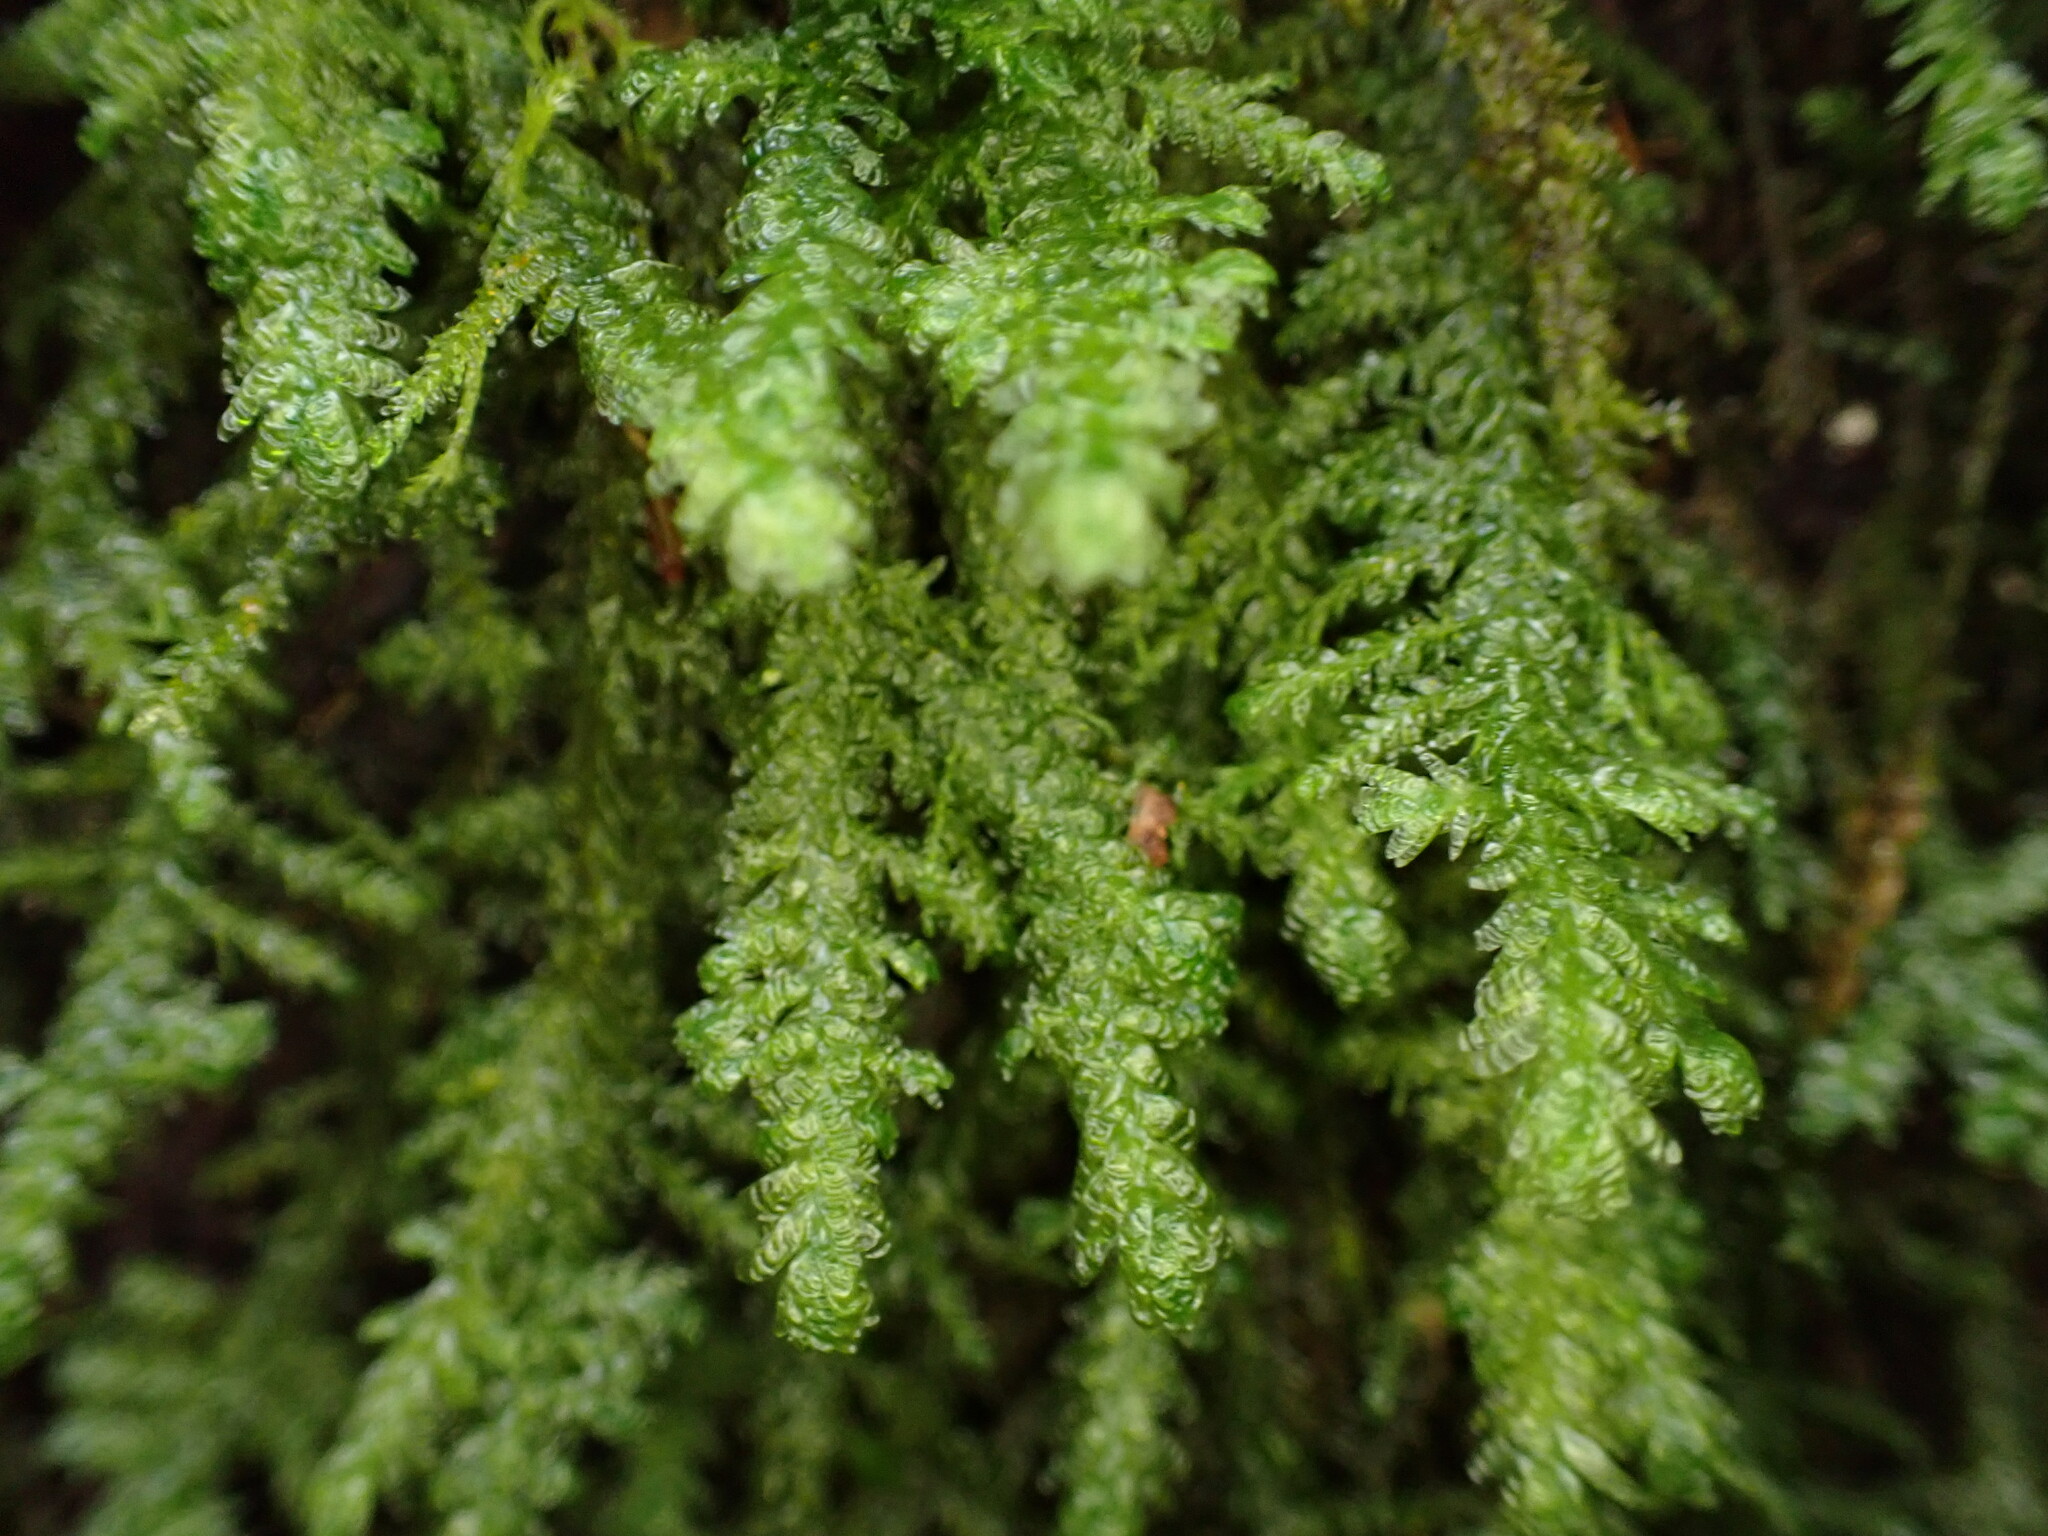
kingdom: Plantae
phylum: Bryophyta
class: Bryopsida
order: Hypnales
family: Neckeraceae
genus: Metaneckera
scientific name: Metaneckera menziesii
